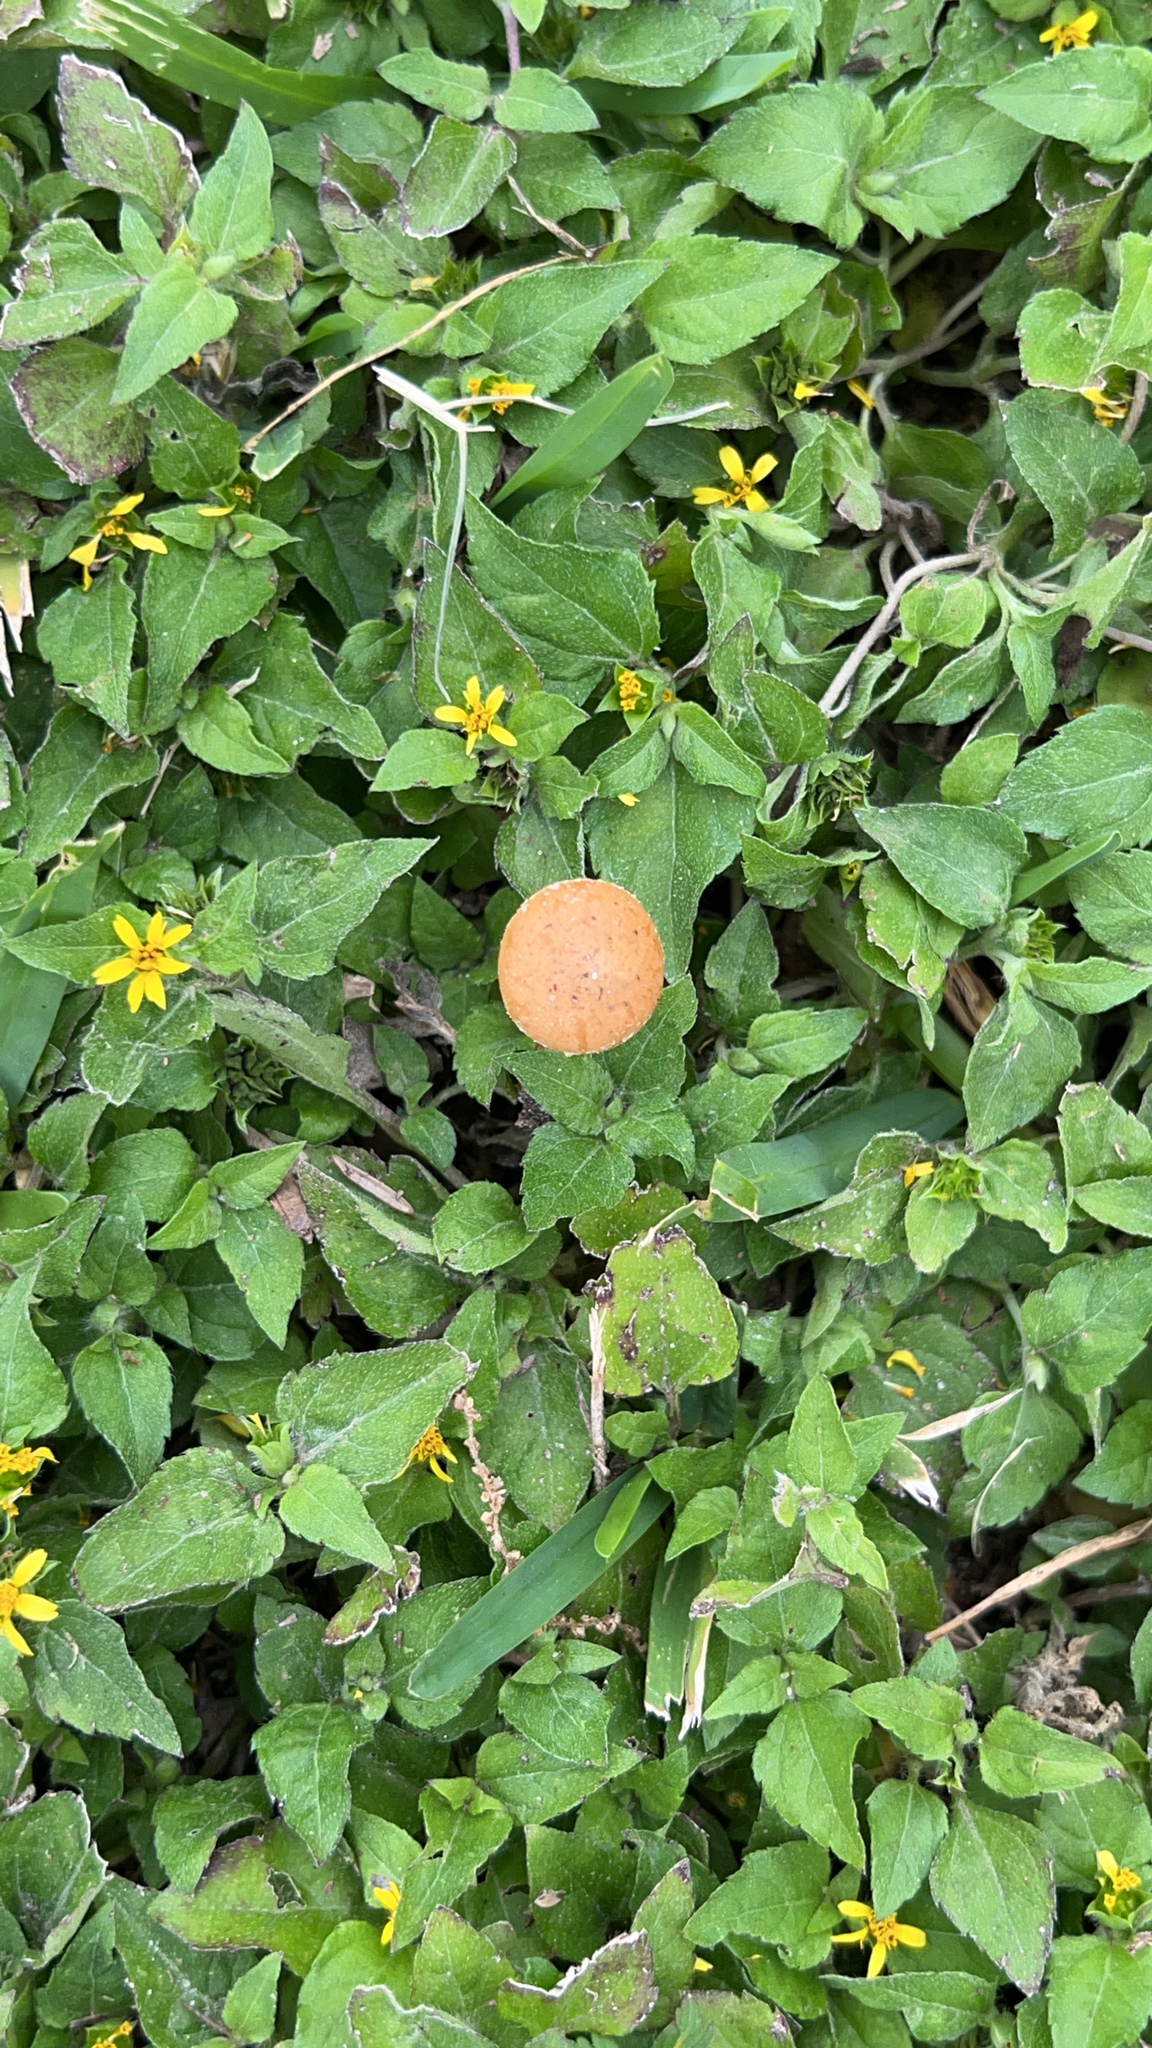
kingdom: Plantae
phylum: Tracheophyta
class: Magnoliopsida
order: Asterales
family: Asteraceae
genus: Calyptocarpus
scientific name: Calyptocarpus vialis
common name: Straggler daisy
